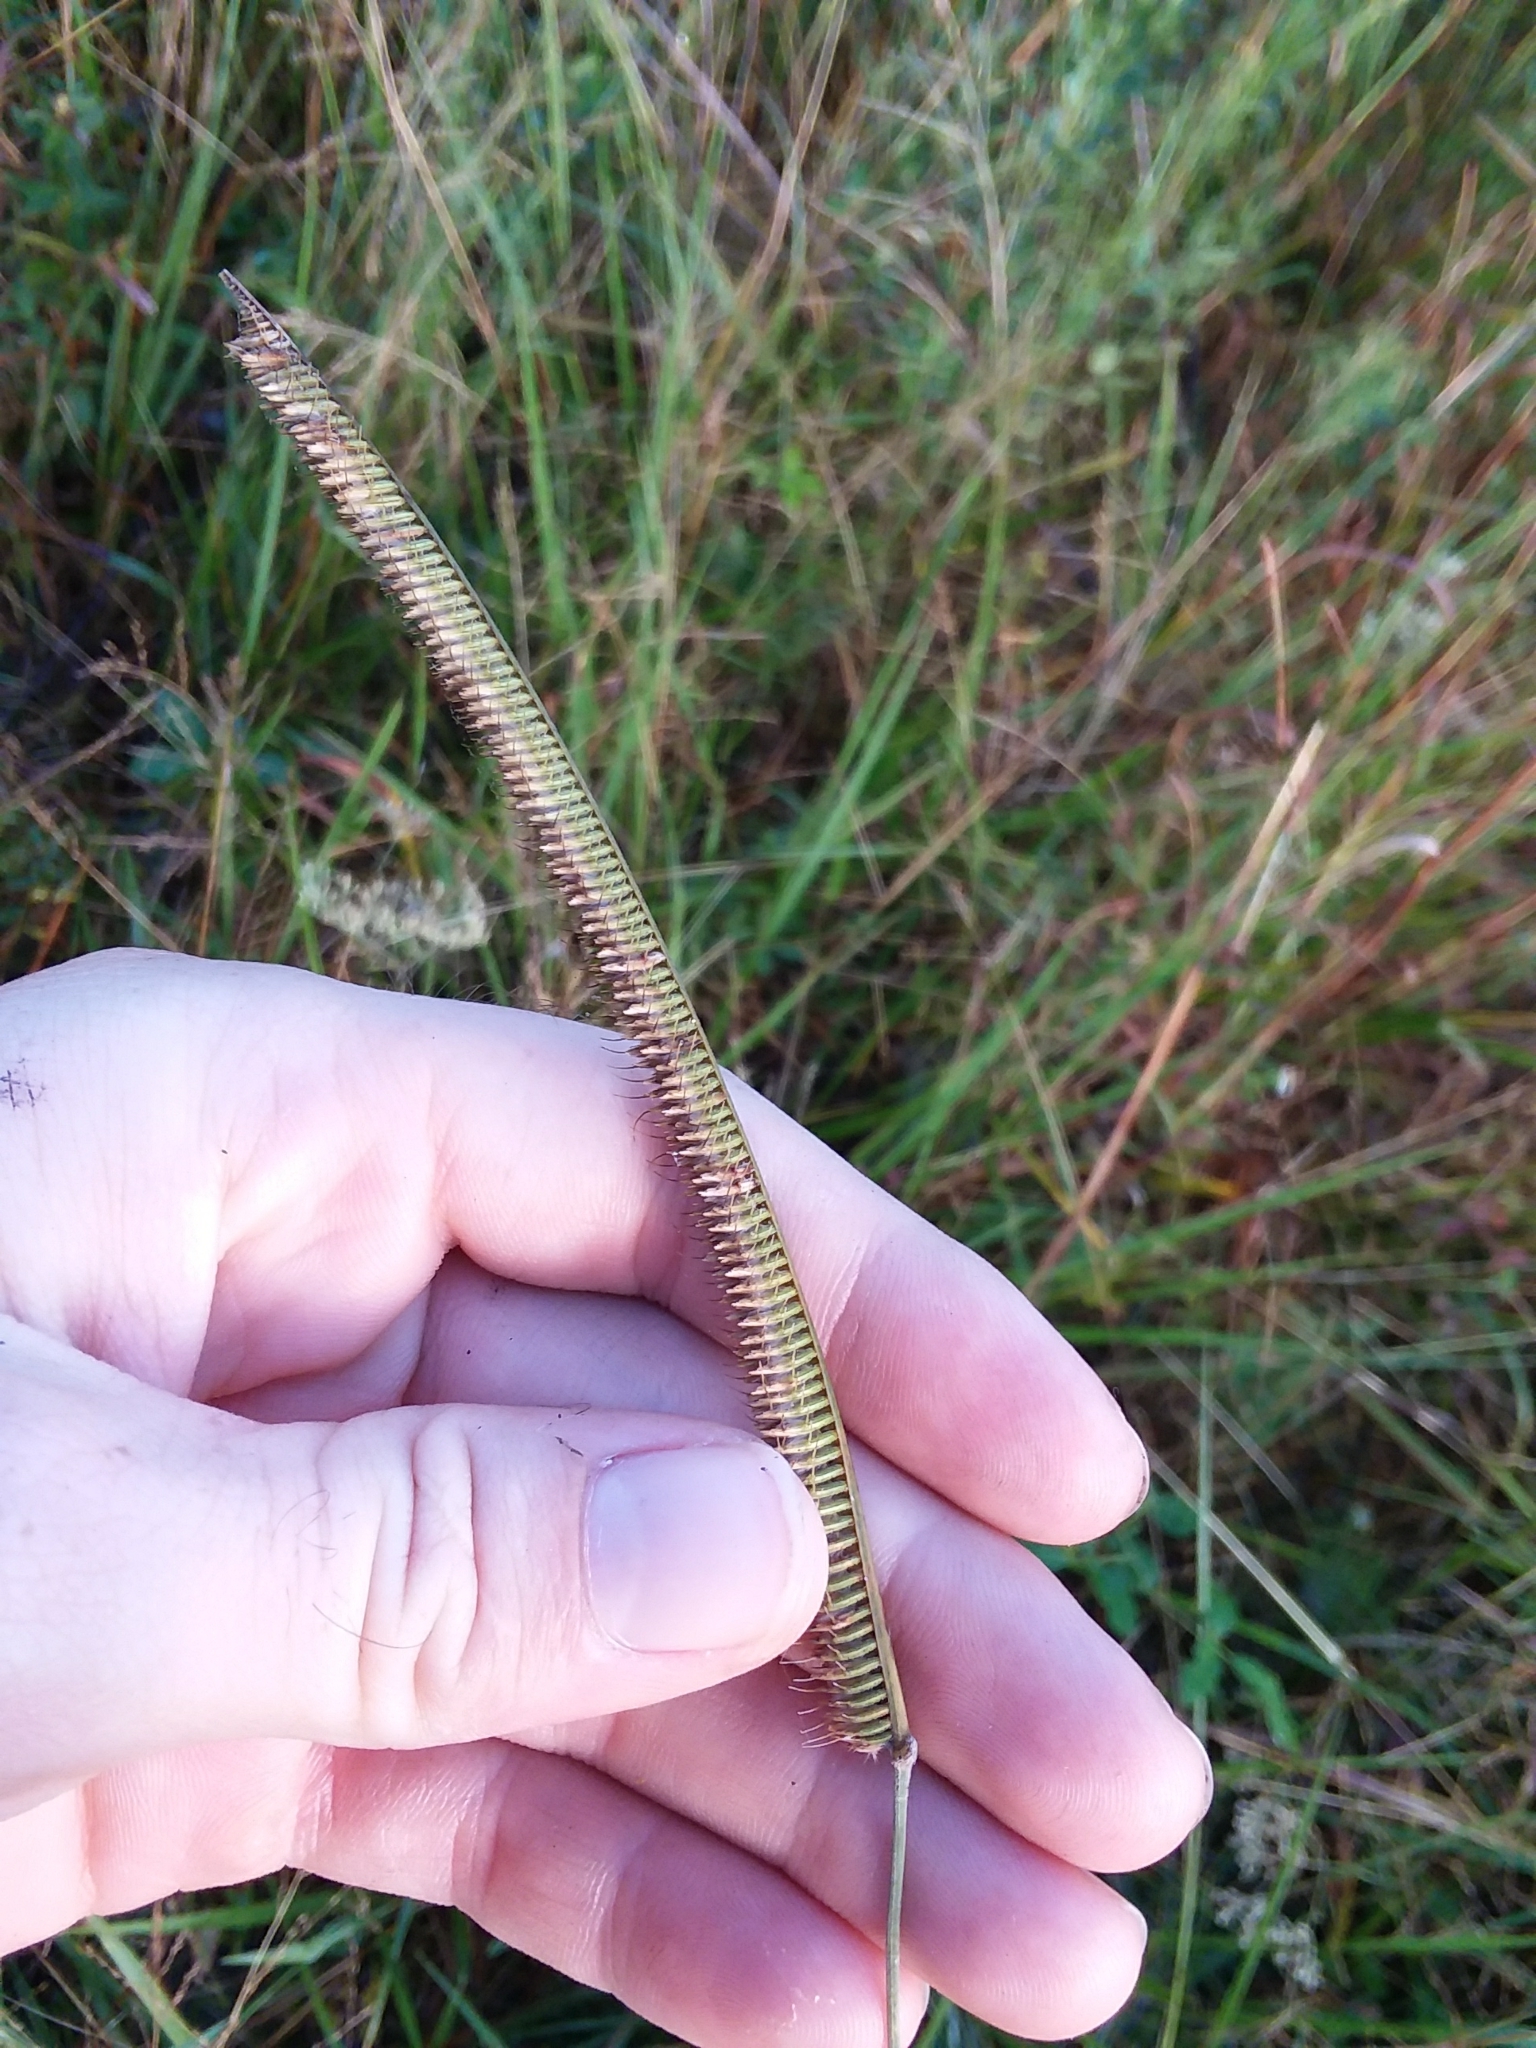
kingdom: Plantae
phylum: Tracheophyta
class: Liliopsida
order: Poales
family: Poaceae
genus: Ctenium
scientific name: Ctenium aromaticum
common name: Toothache grass
